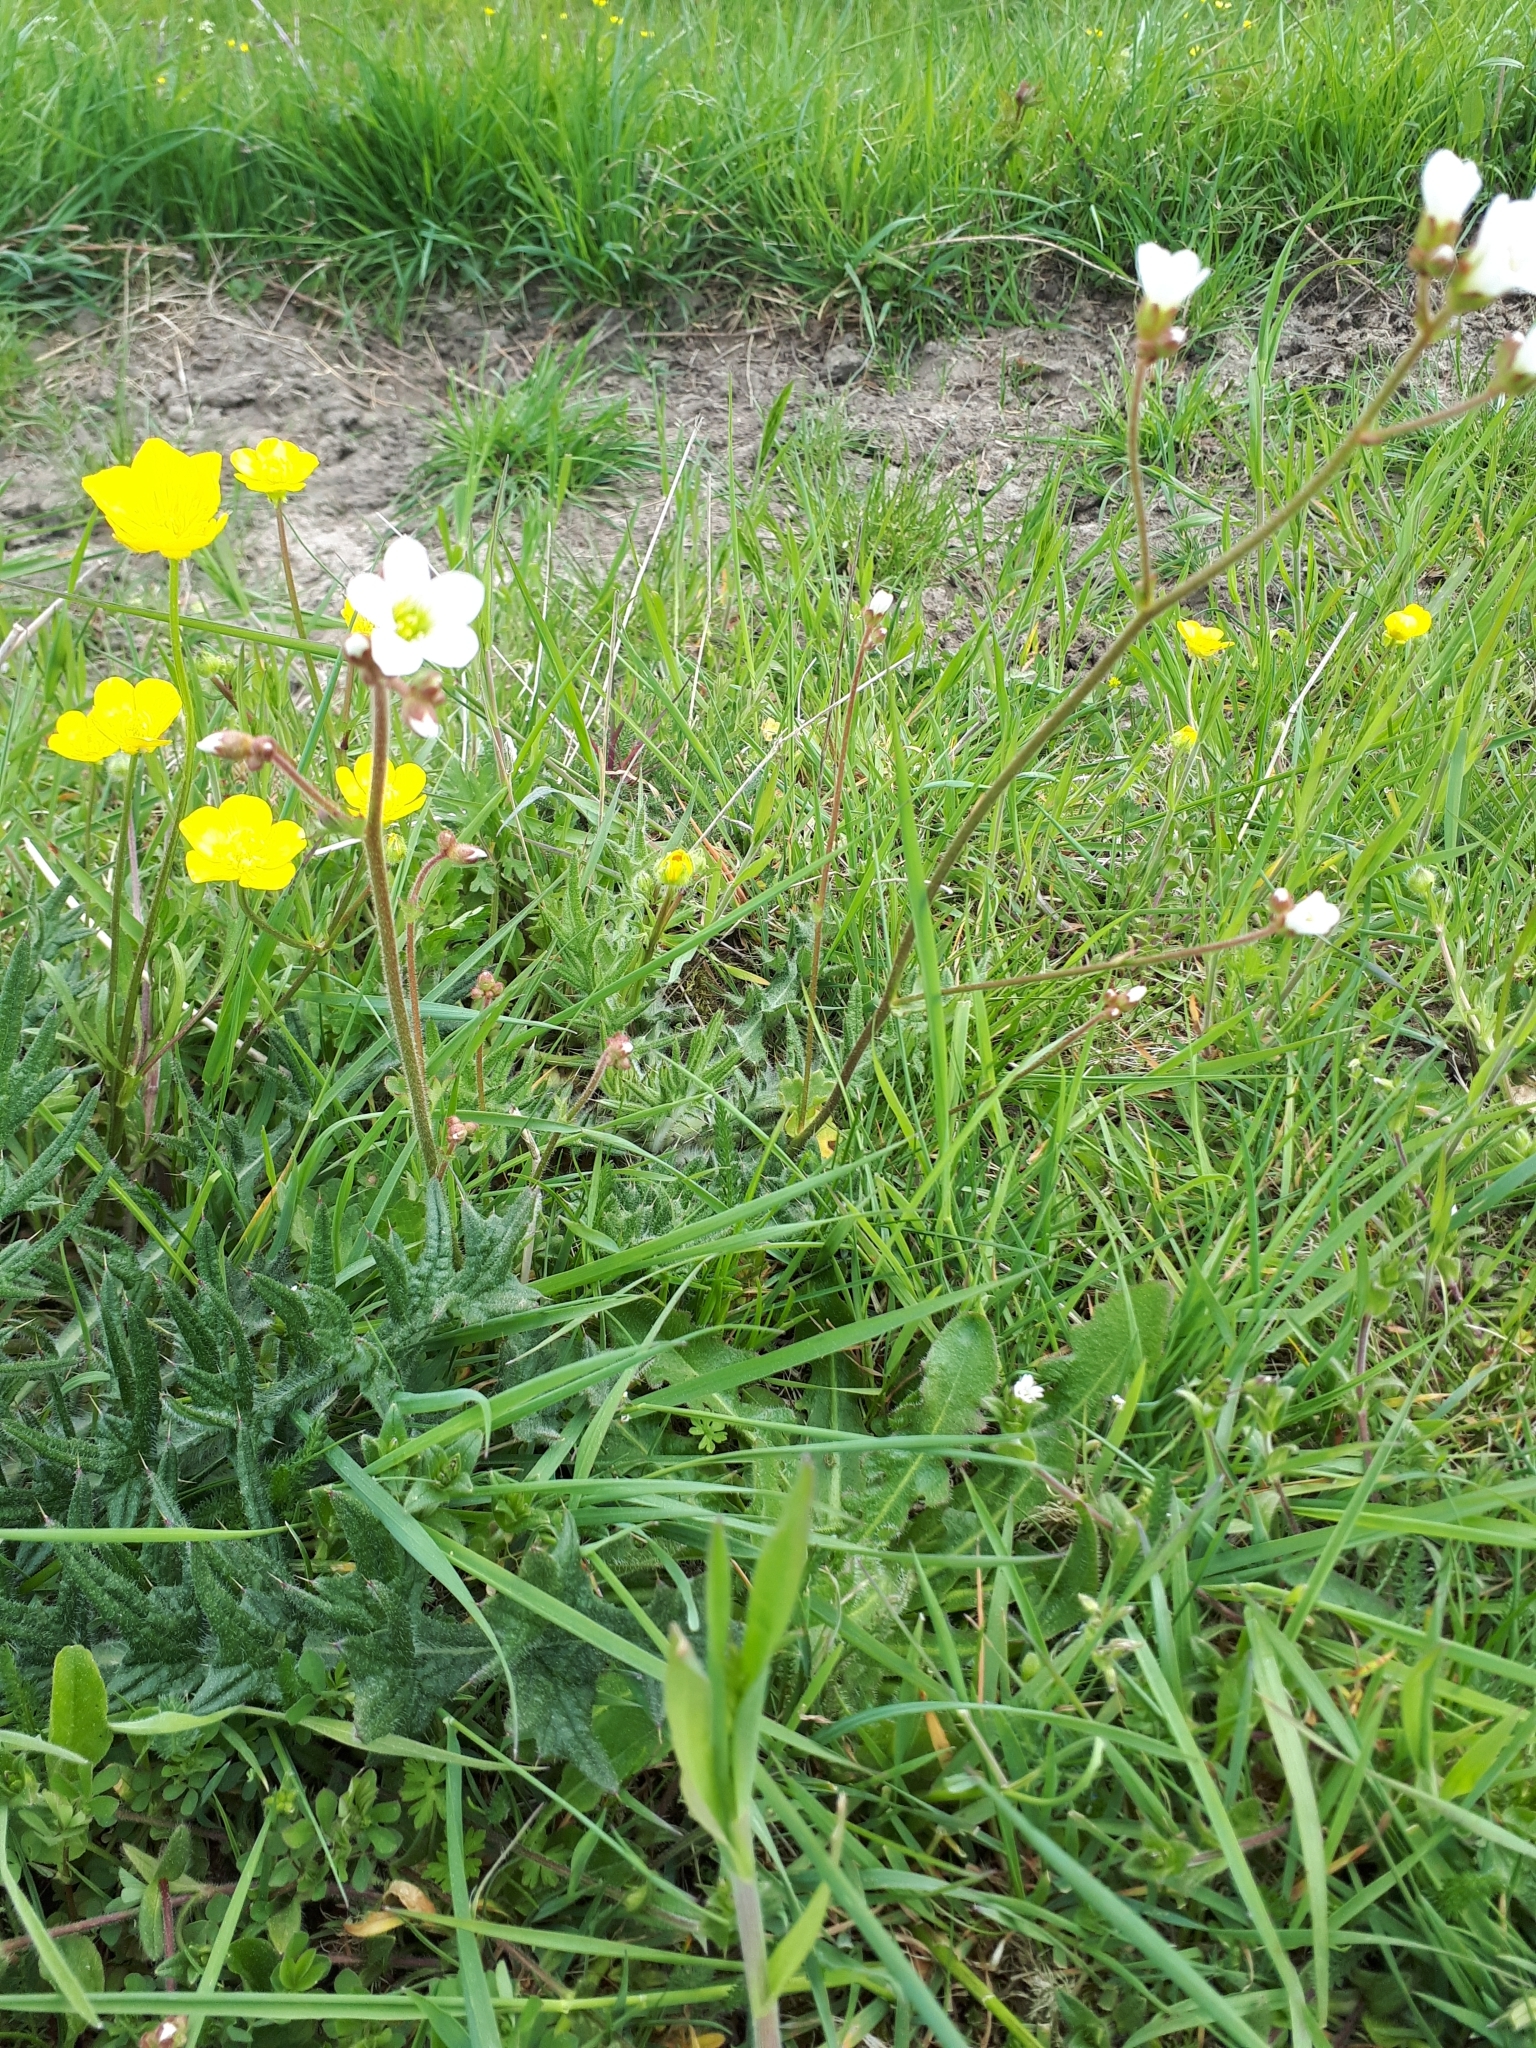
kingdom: Plantae
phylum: Tracheophyta
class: Magnoliopsida
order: Saxifragales
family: Saxifragaceae
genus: Saxifraga
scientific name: Saxifraga granulata
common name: Meadow saxifrage
